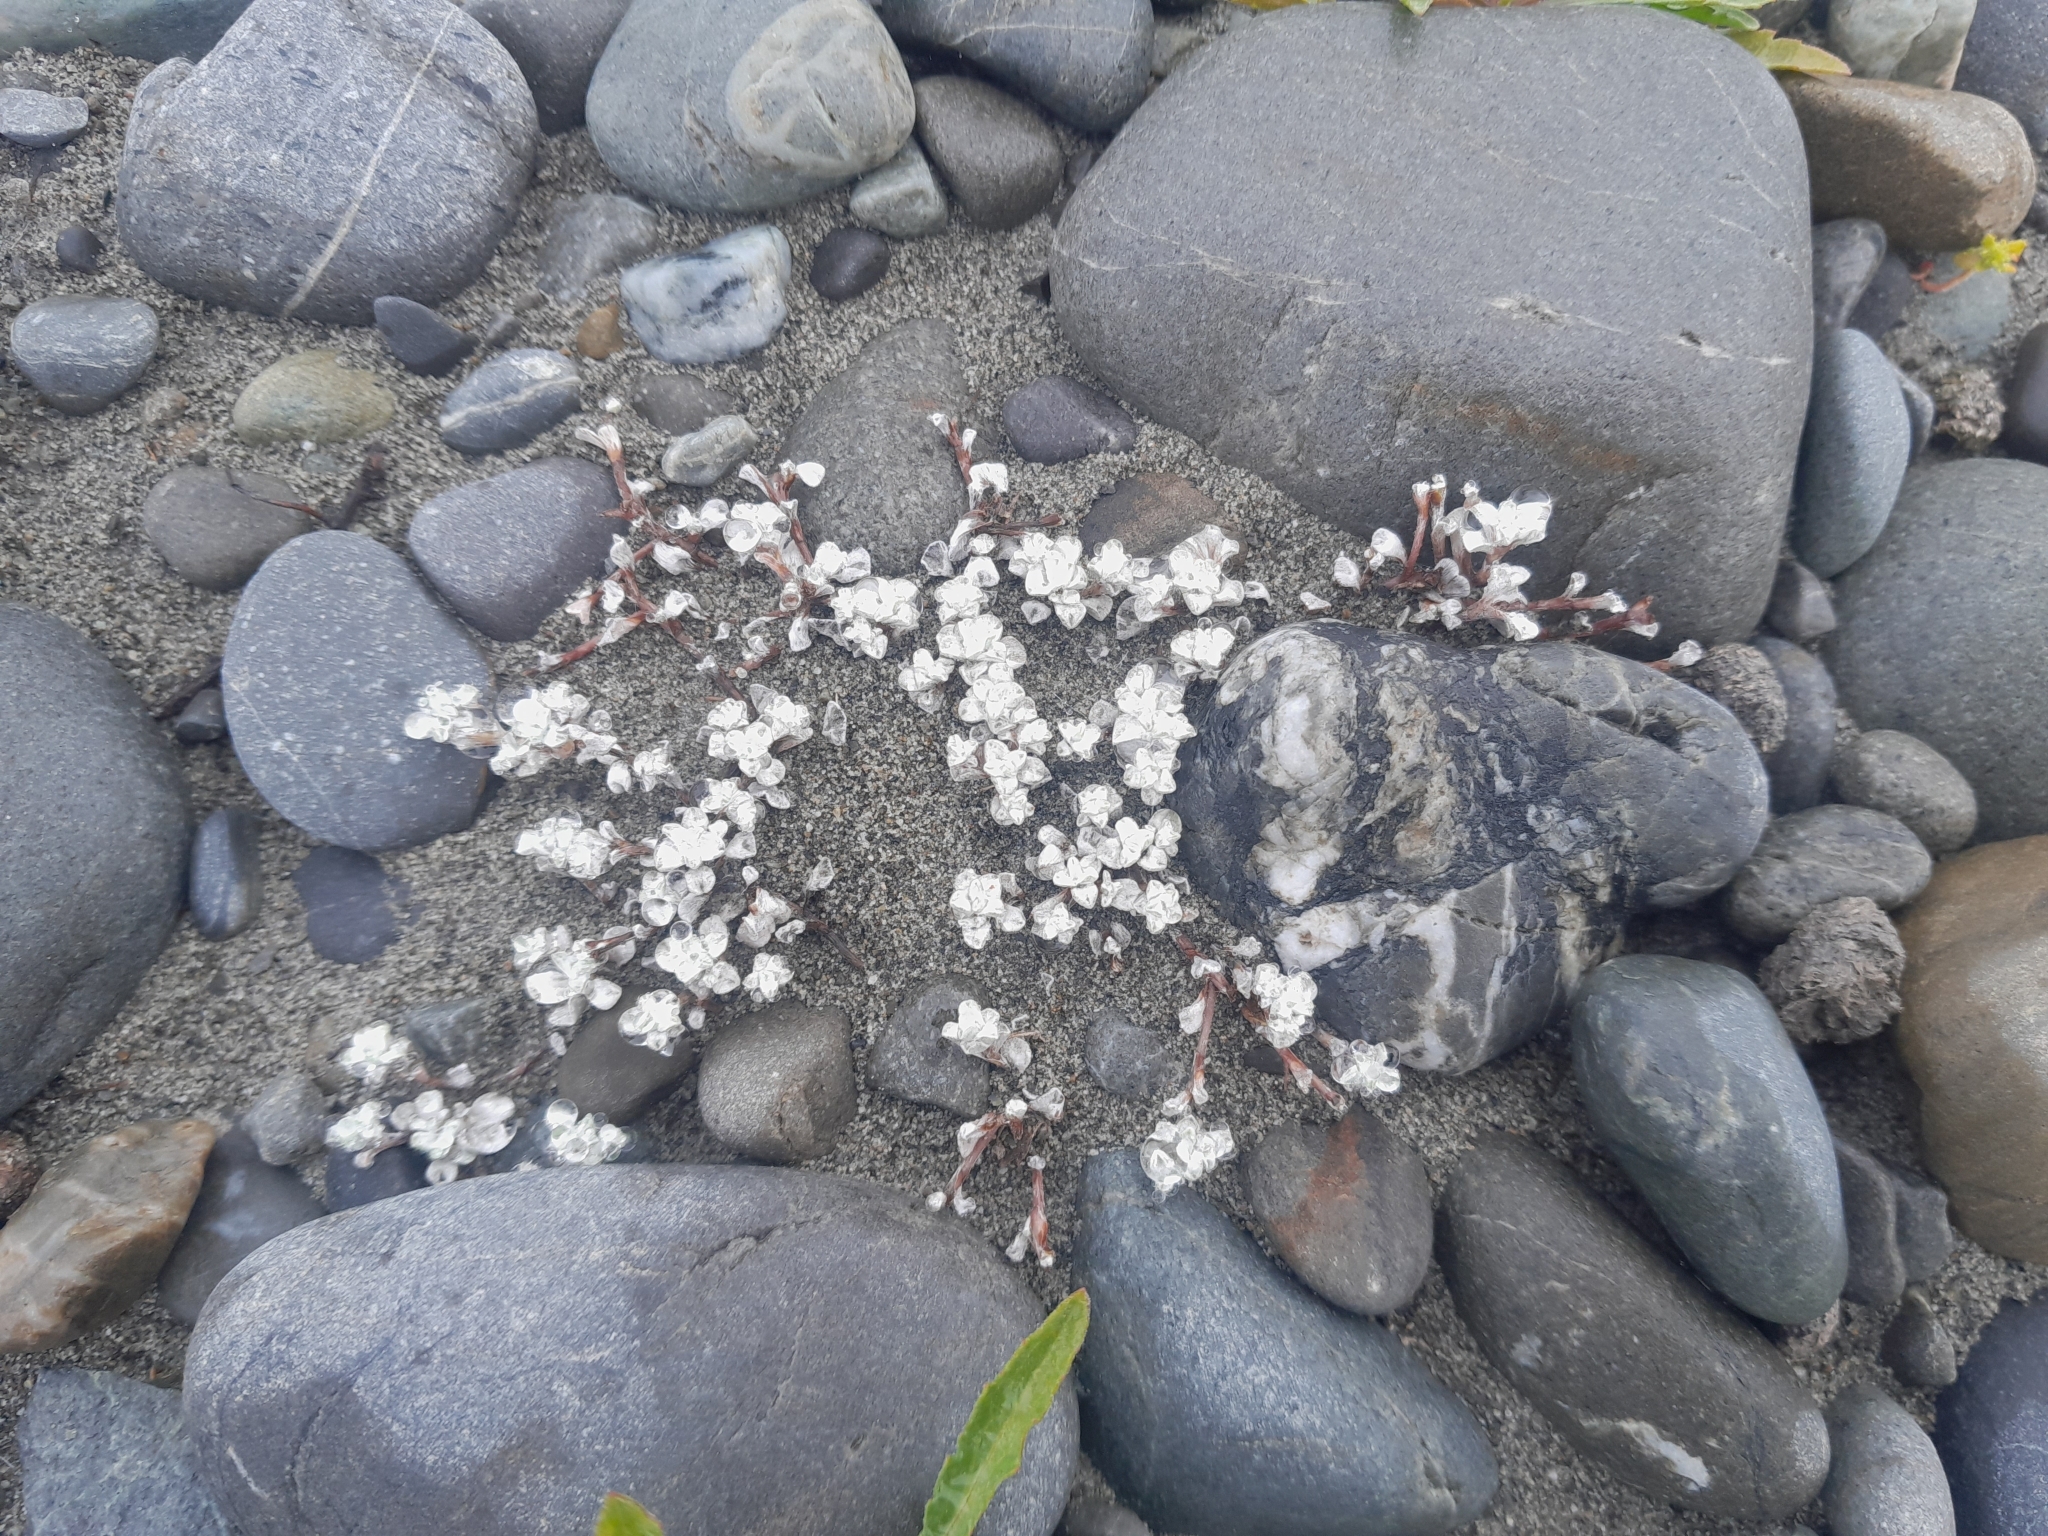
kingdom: Plantae
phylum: Tracheophyta
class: Magnoliopsida
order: Asterales
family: Asteraceae
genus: Raoulia
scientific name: Raoulia hookeri
